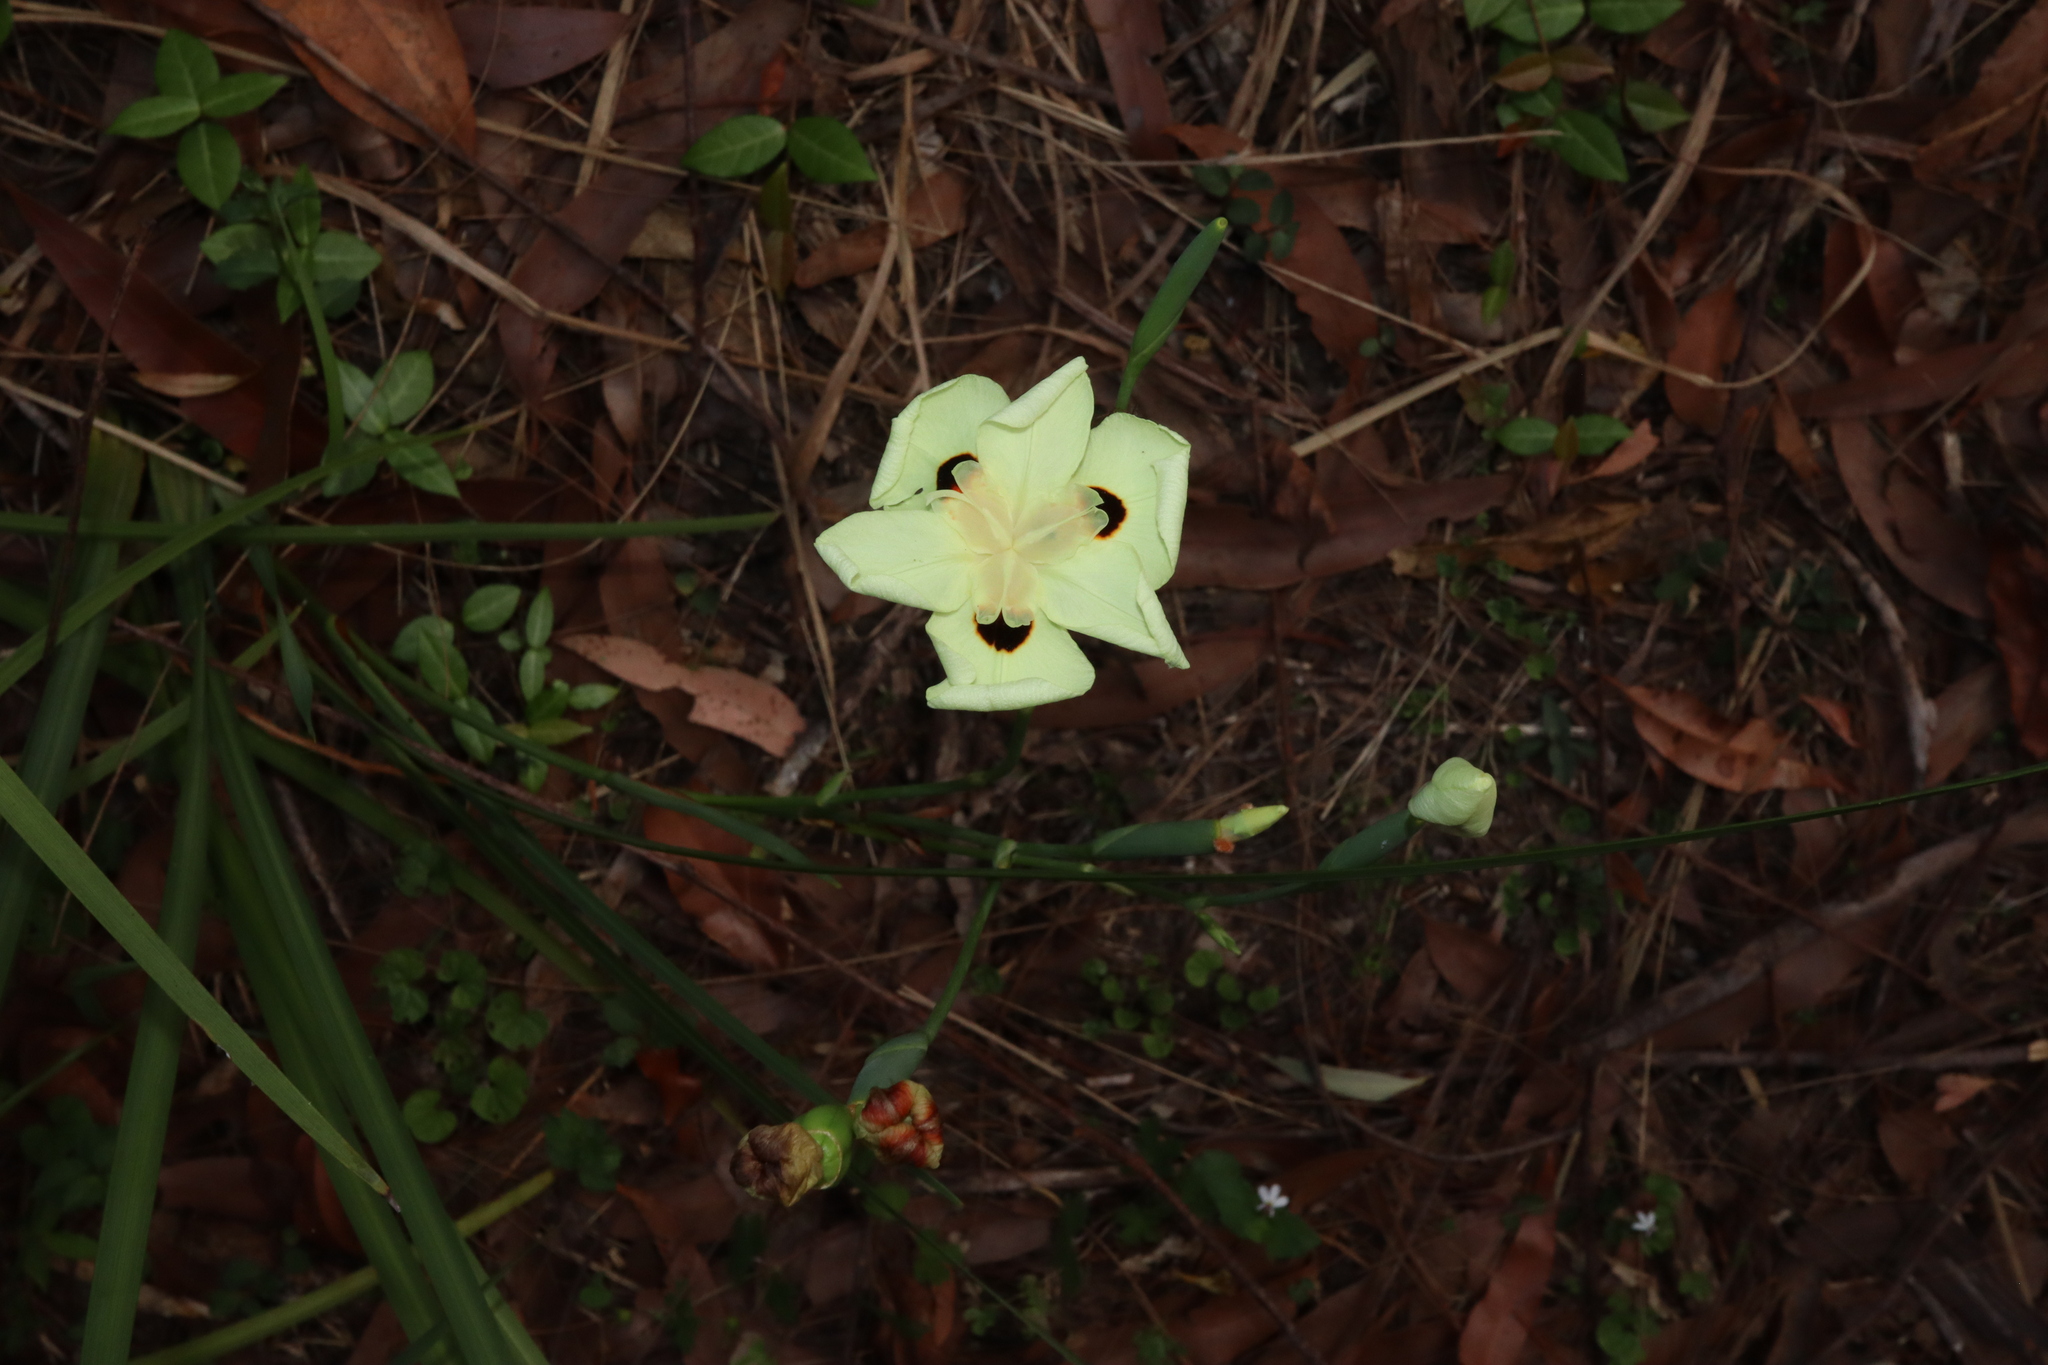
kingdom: Plantae
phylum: Tracheophyta
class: Liliopsida
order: Asparagales
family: Iridaceae
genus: Dietes
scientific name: Dietes bicolor
